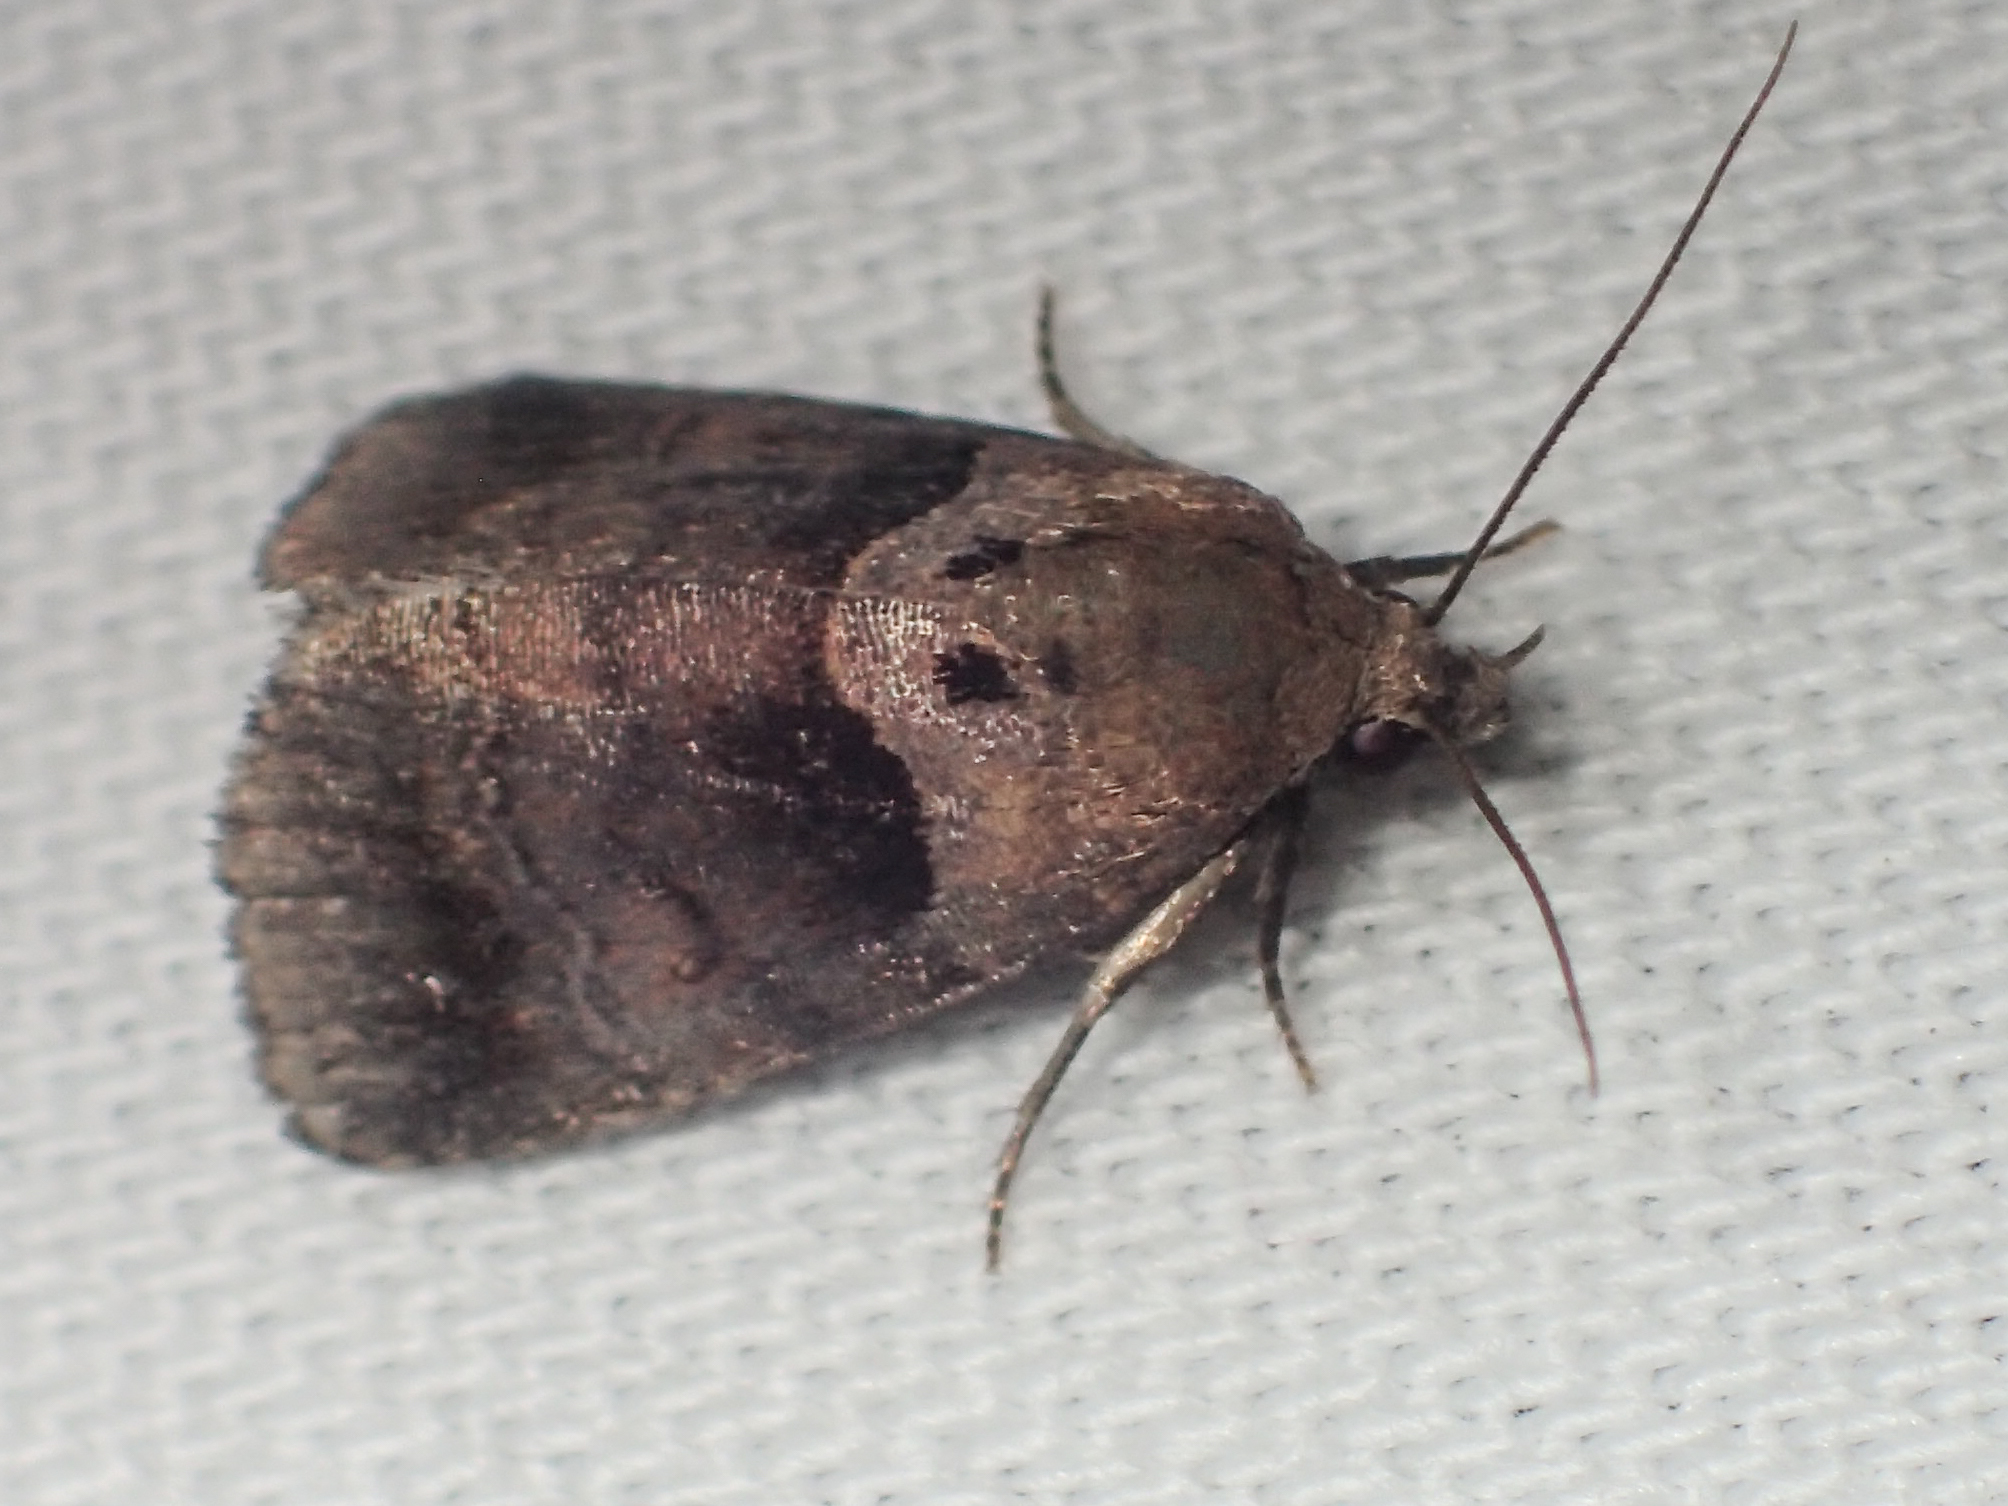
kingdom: Animalia
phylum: Arthropoda
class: Insecta
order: Lepidoptera
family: Noctuidae
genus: Cretonia
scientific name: Cretonia forficula
